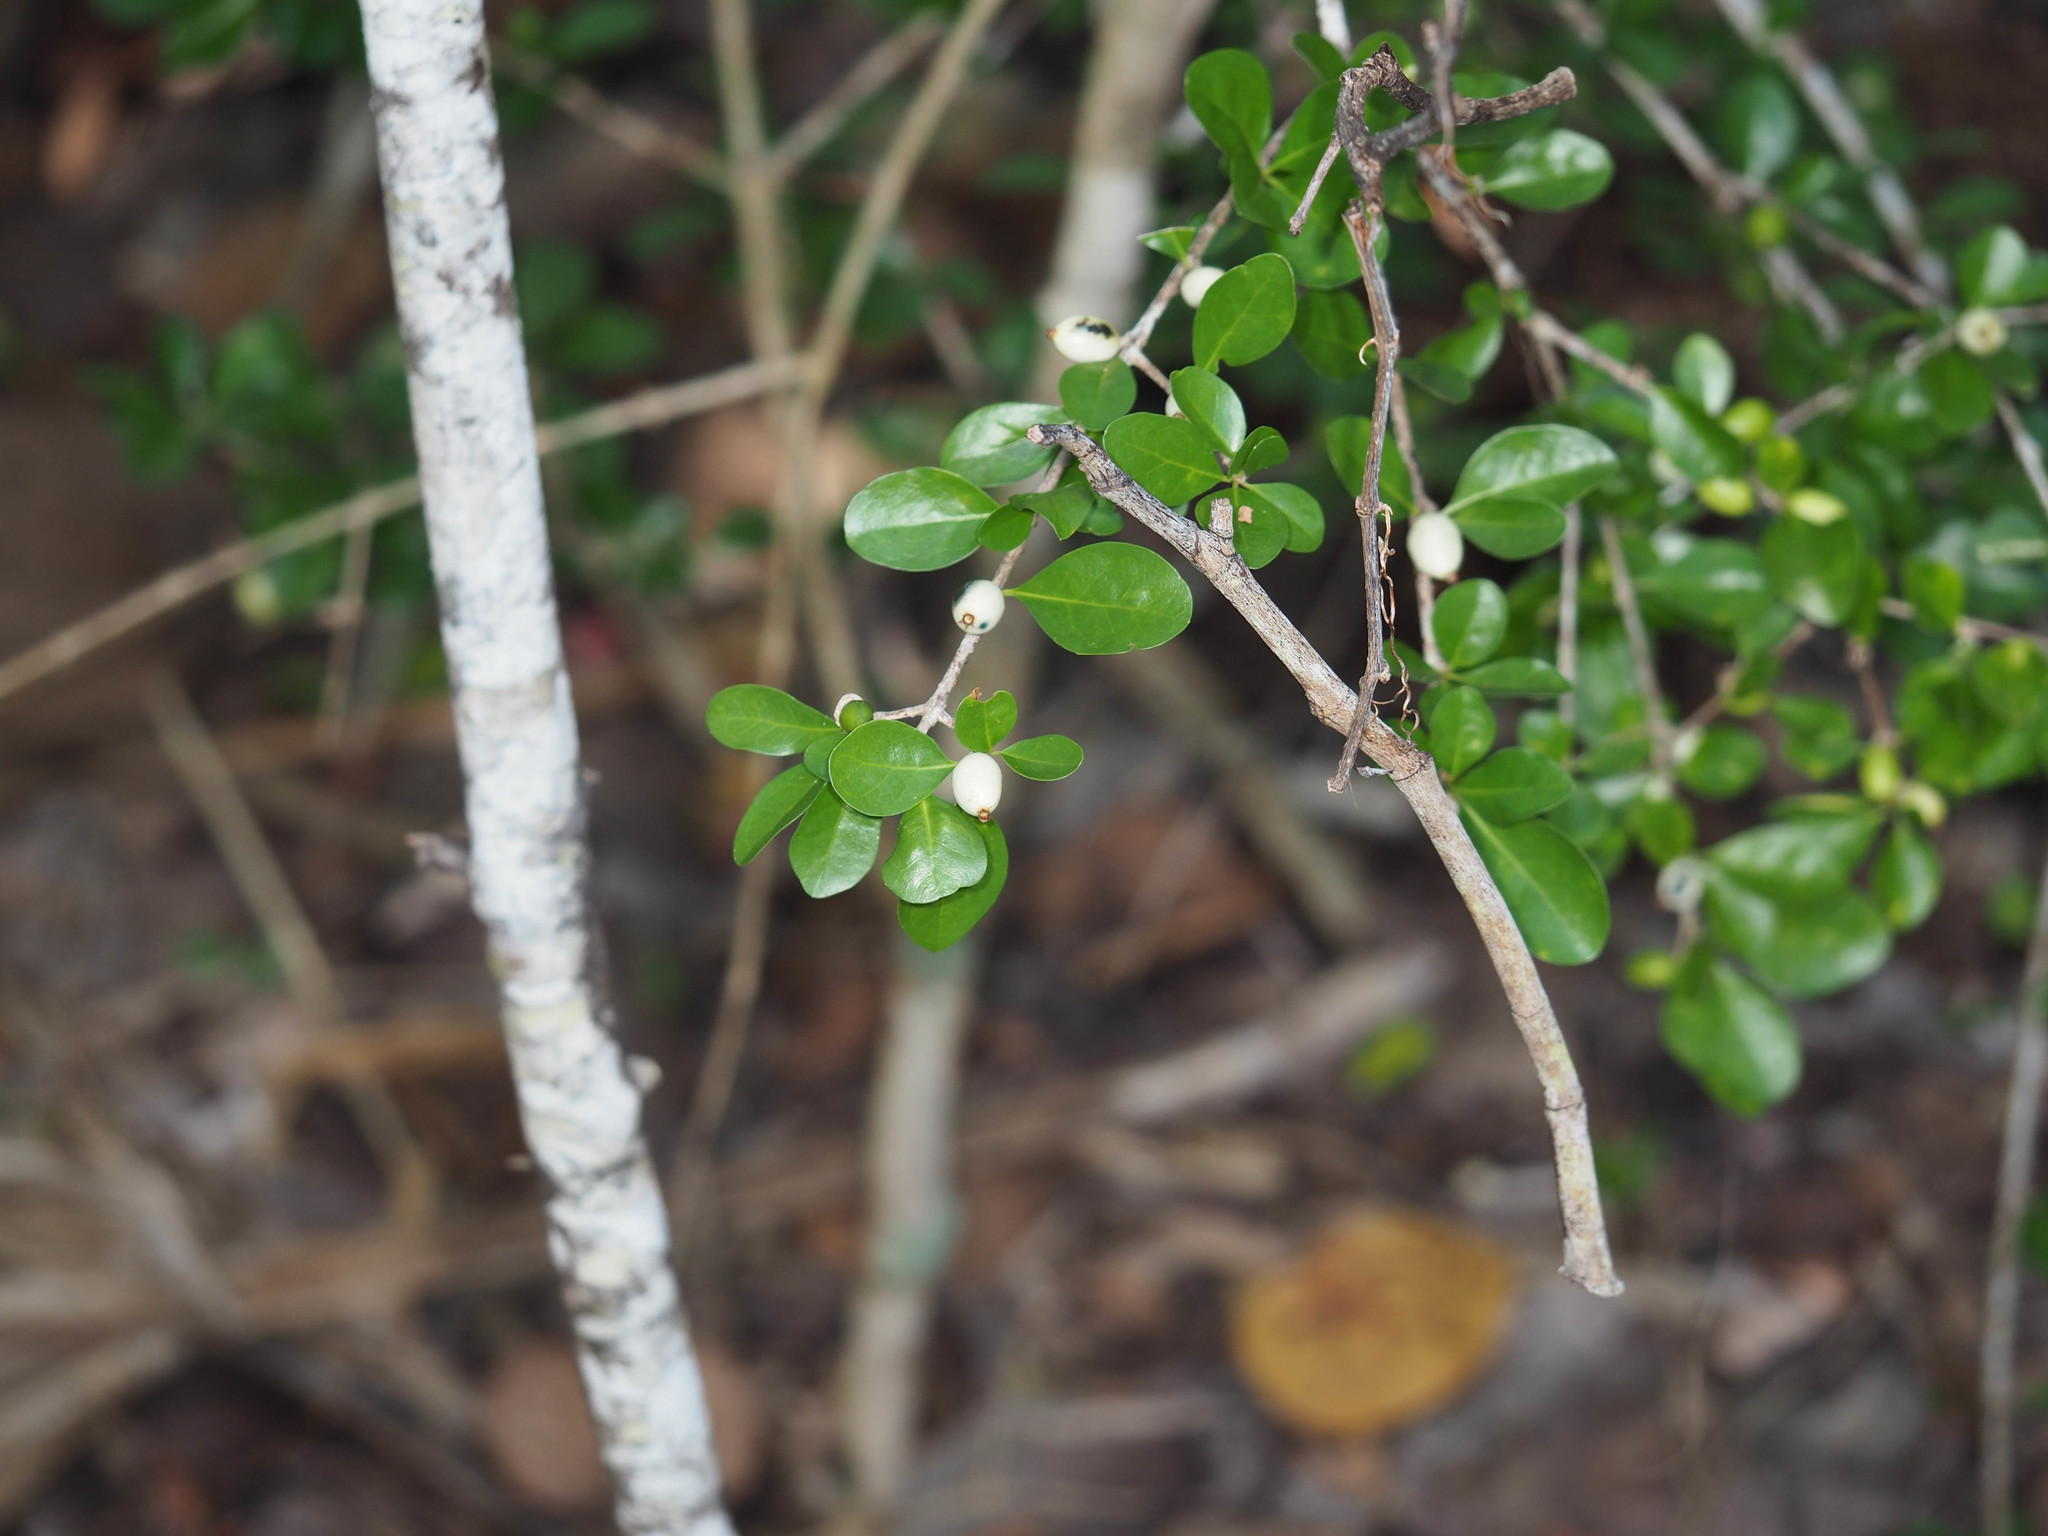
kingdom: Plantae
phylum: Tracheophyta
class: Magnoliopsida
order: Gentianales
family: Rubiaceae
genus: Randia
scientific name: Randia aculeata
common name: Inkberry
